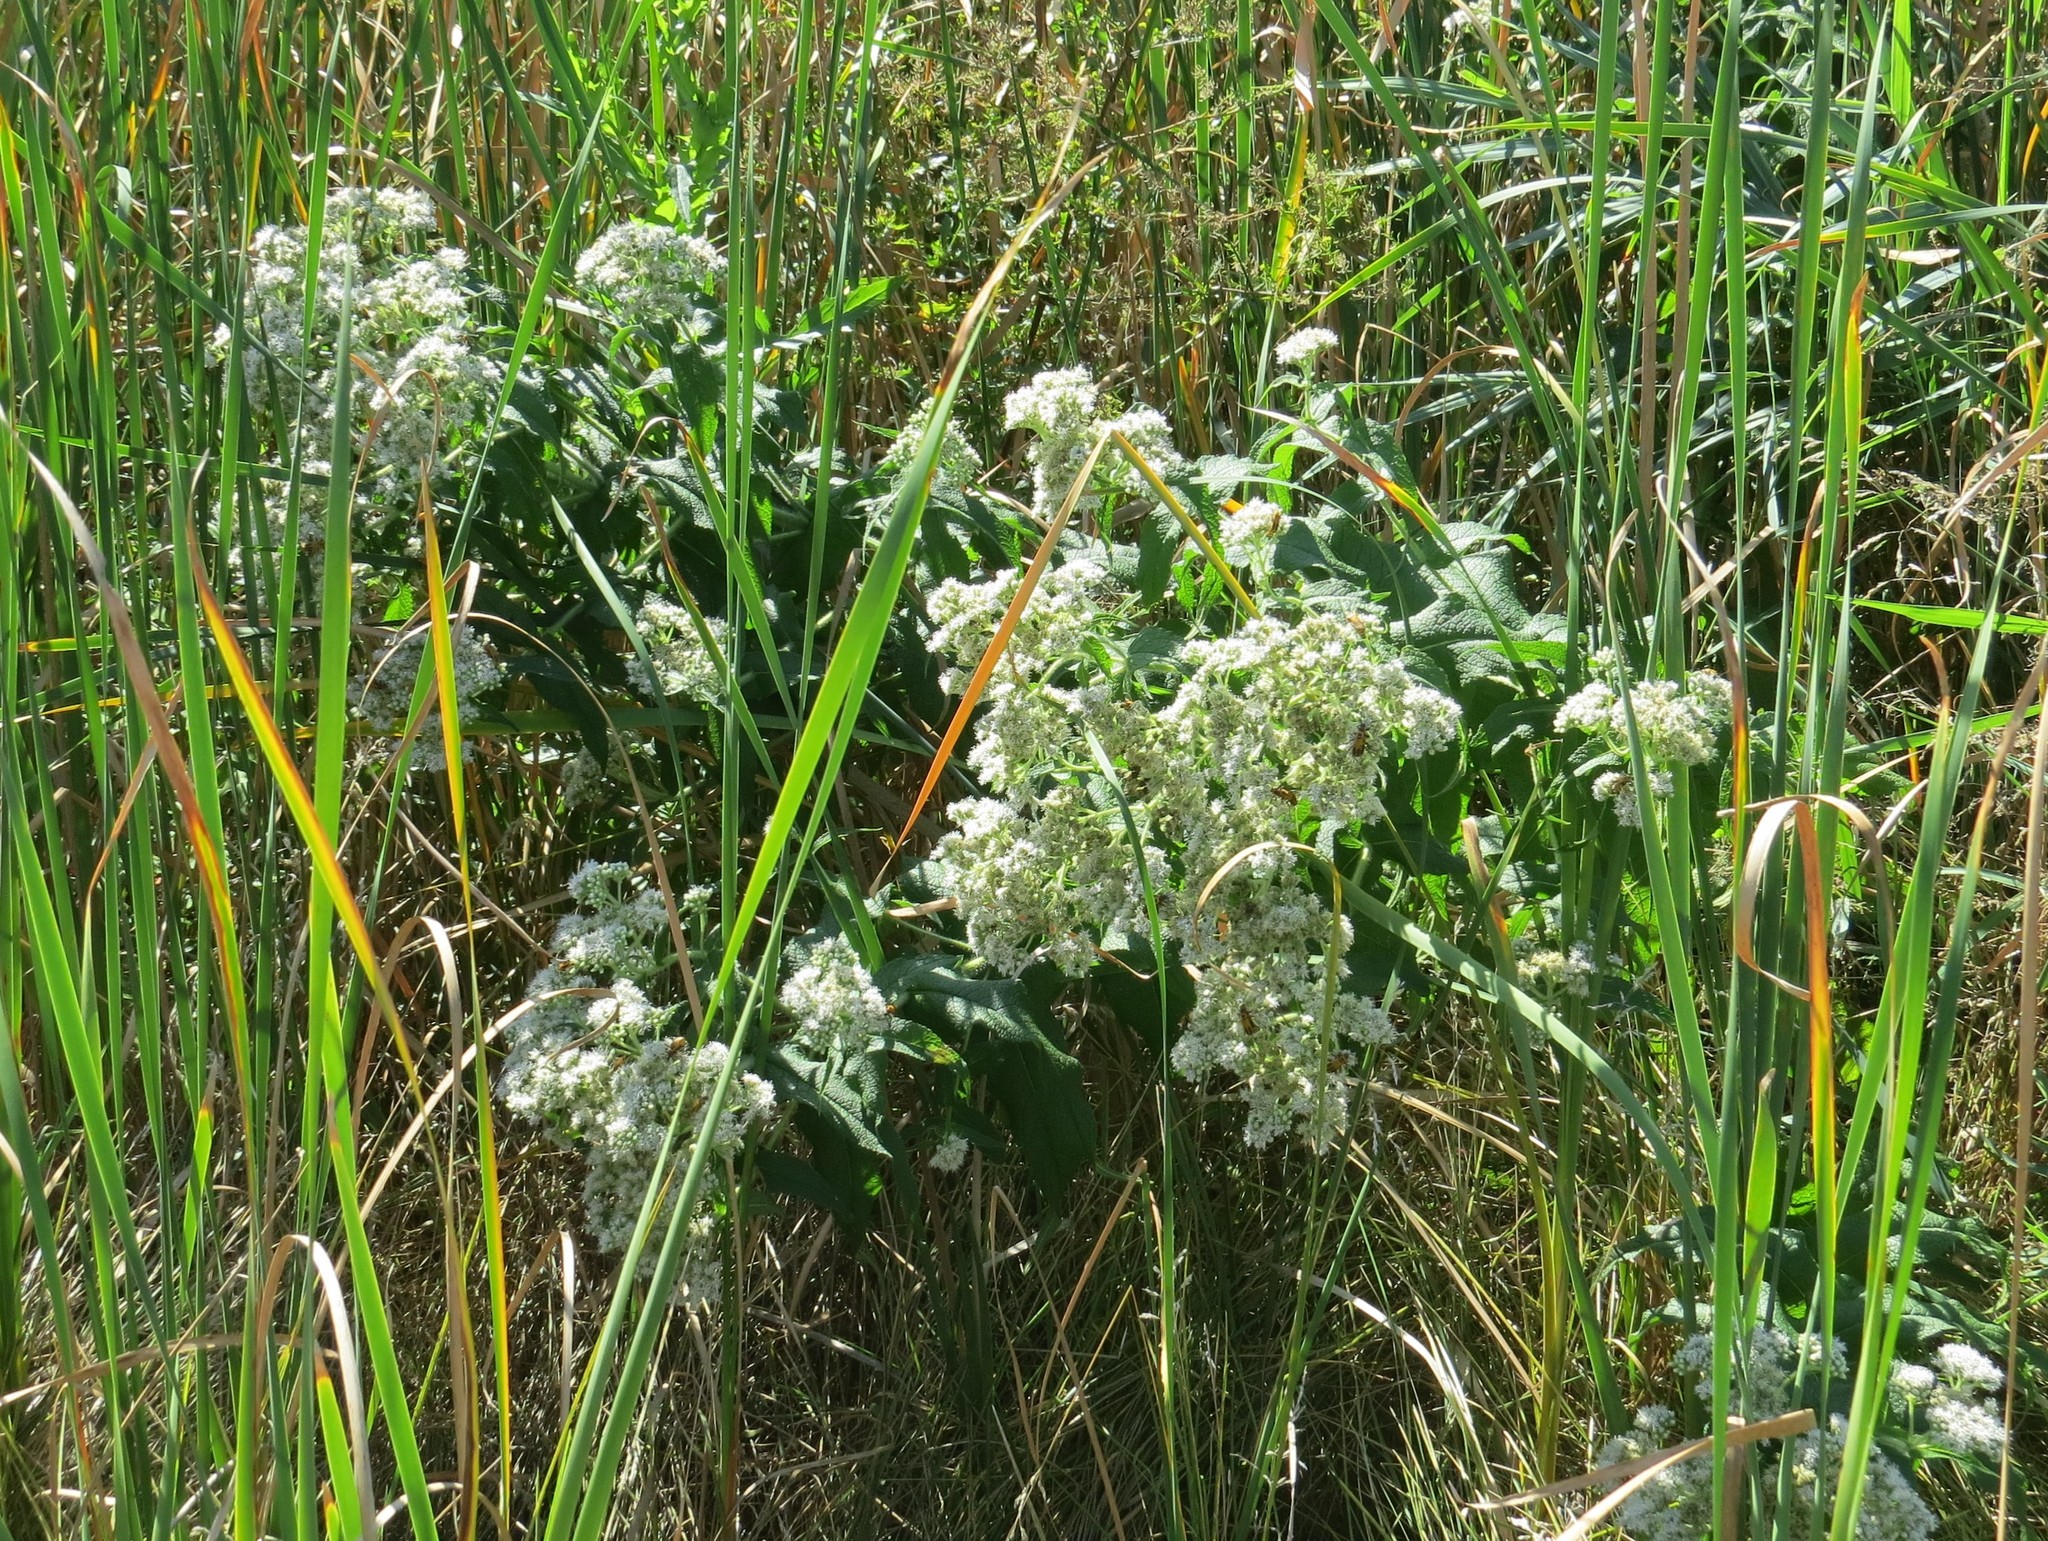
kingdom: Plantae
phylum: Tracheophyta
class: Magnoliopsida
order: Asterales
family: Asteraceae
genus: Eupatorium
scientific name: Eupatorium perfoliatum
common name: Boneset
